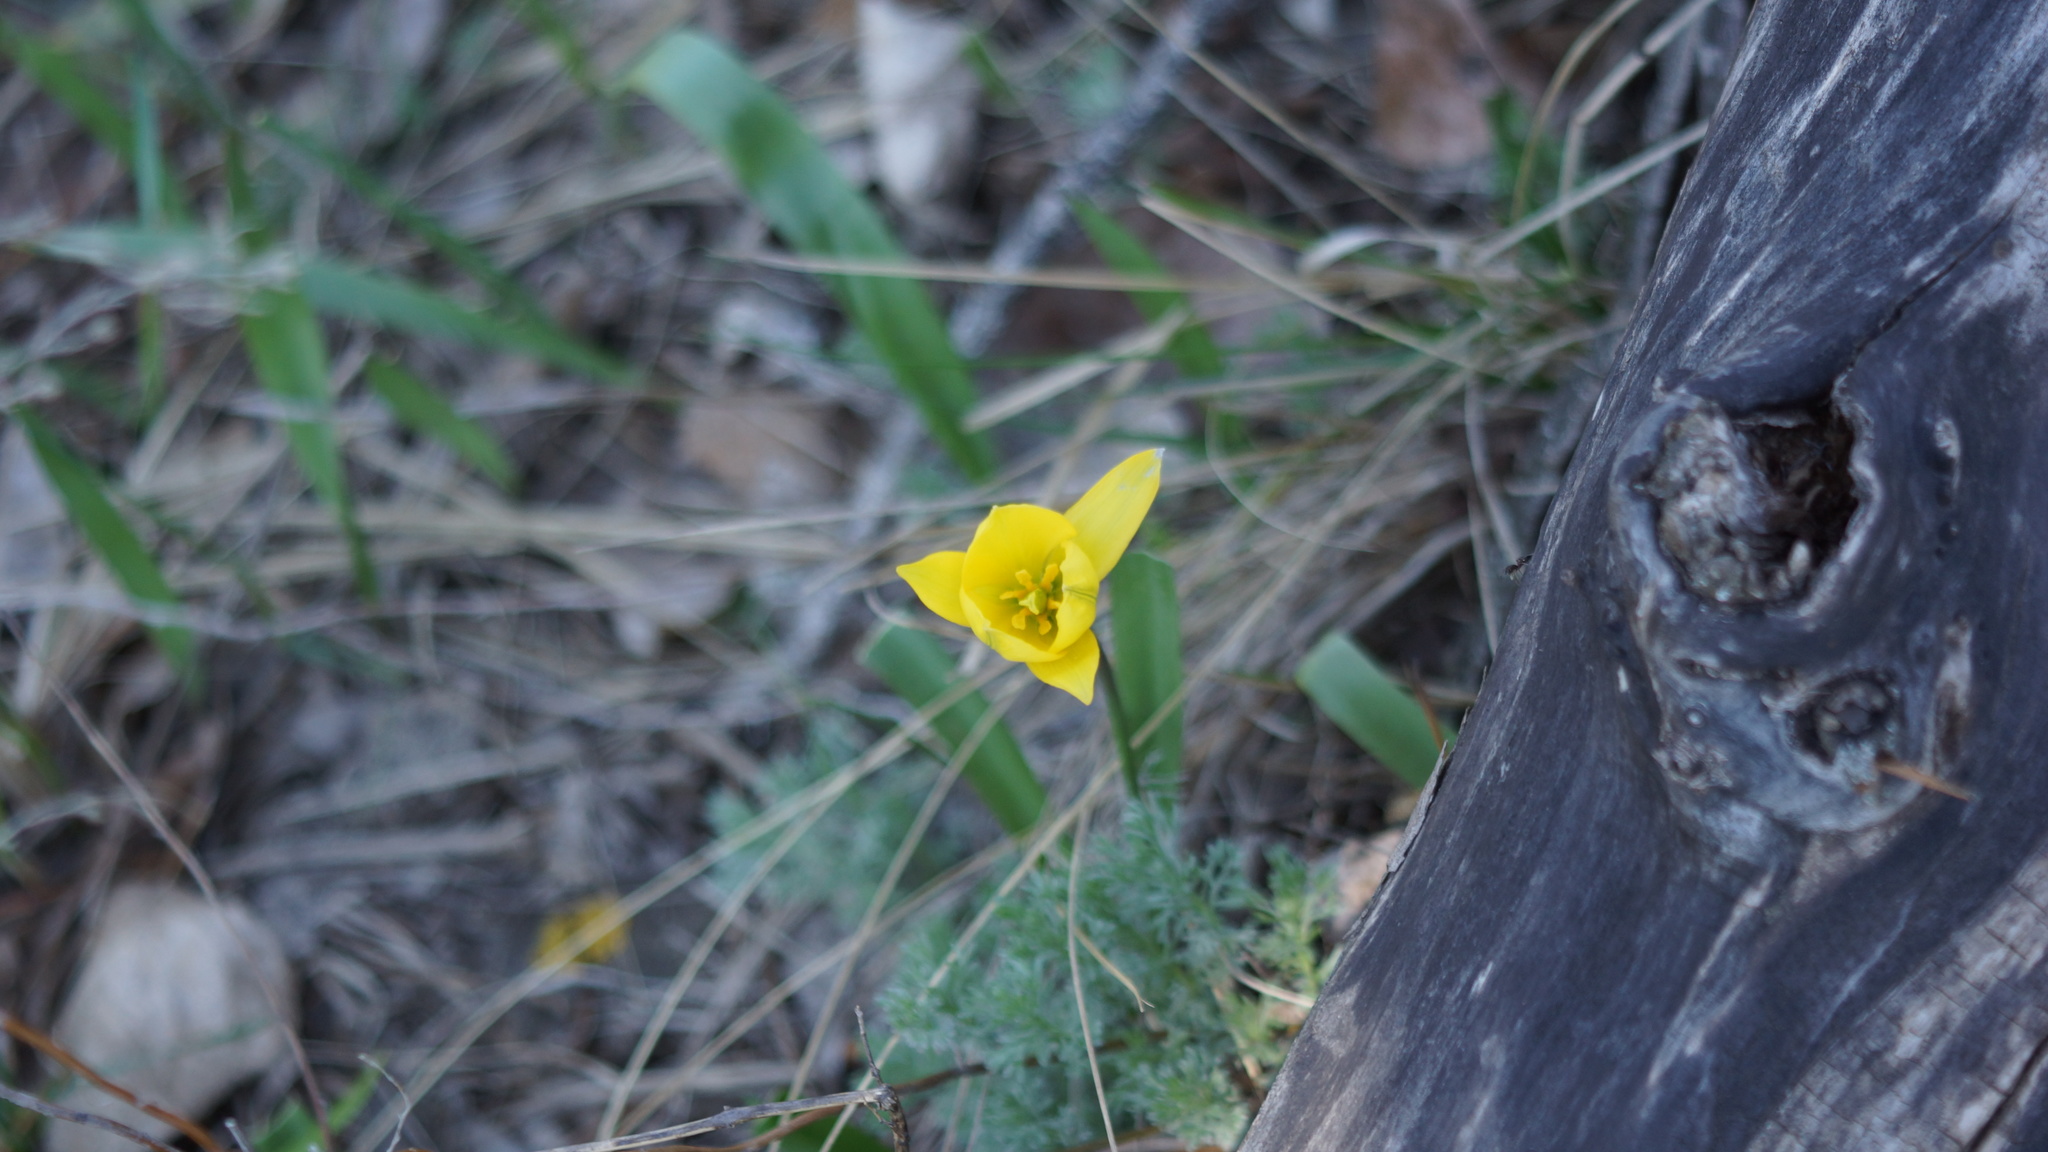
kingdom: Plantae
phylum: Tracheophyta
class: Liliopsida
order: Liliales
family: Liliaceae
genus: Tulipa
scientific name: Tulipa sylvestris
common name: Wild tulip
